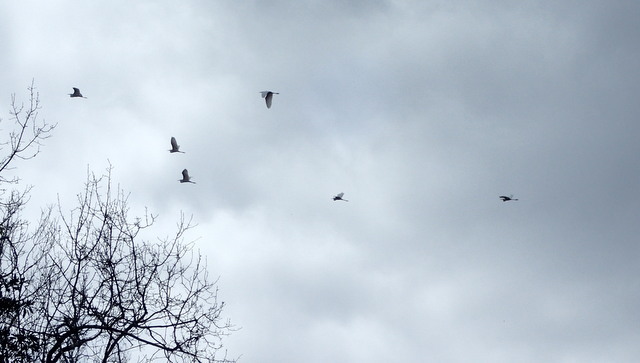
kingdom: Animalia
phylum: Chordata
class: Aves
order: Pelecaniformes
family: Ardeidae
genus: Ardea
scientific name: Ardea alba
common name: Great egret
